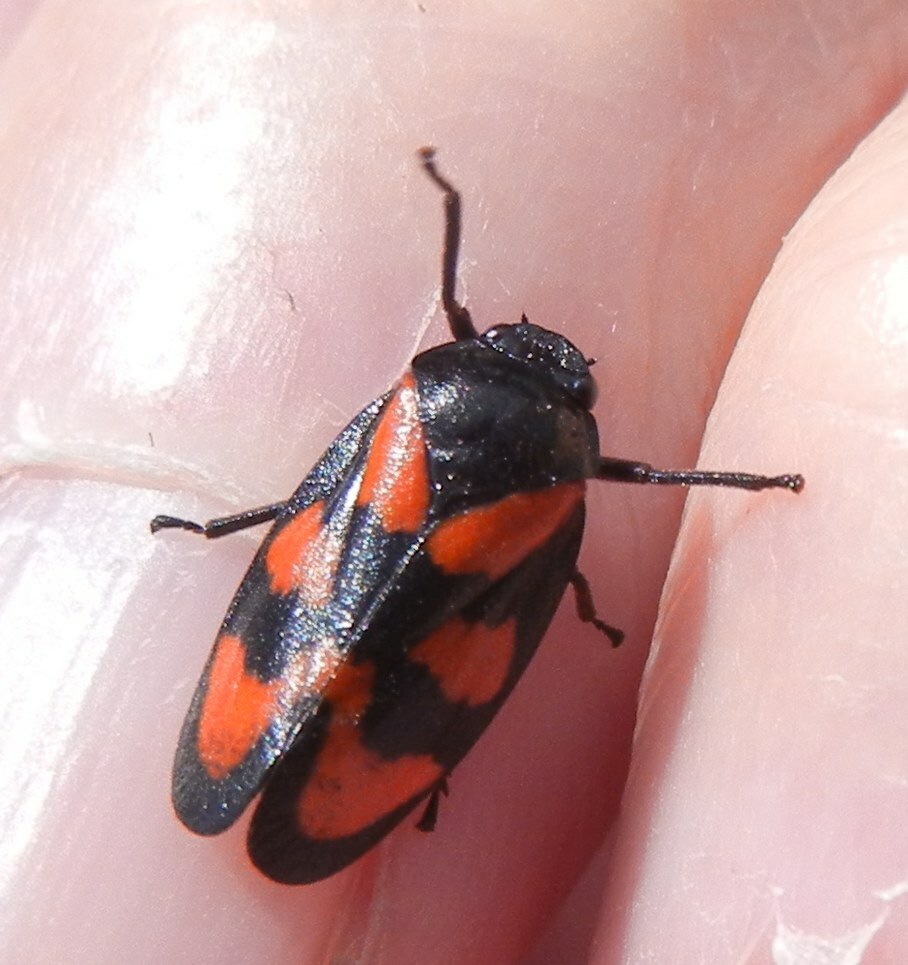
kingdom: Animalia
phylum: Arthropoda
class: Insecta
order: Hemiptera
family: Cercopidae
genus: Cercopis
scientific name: Cercopis vulnerata
